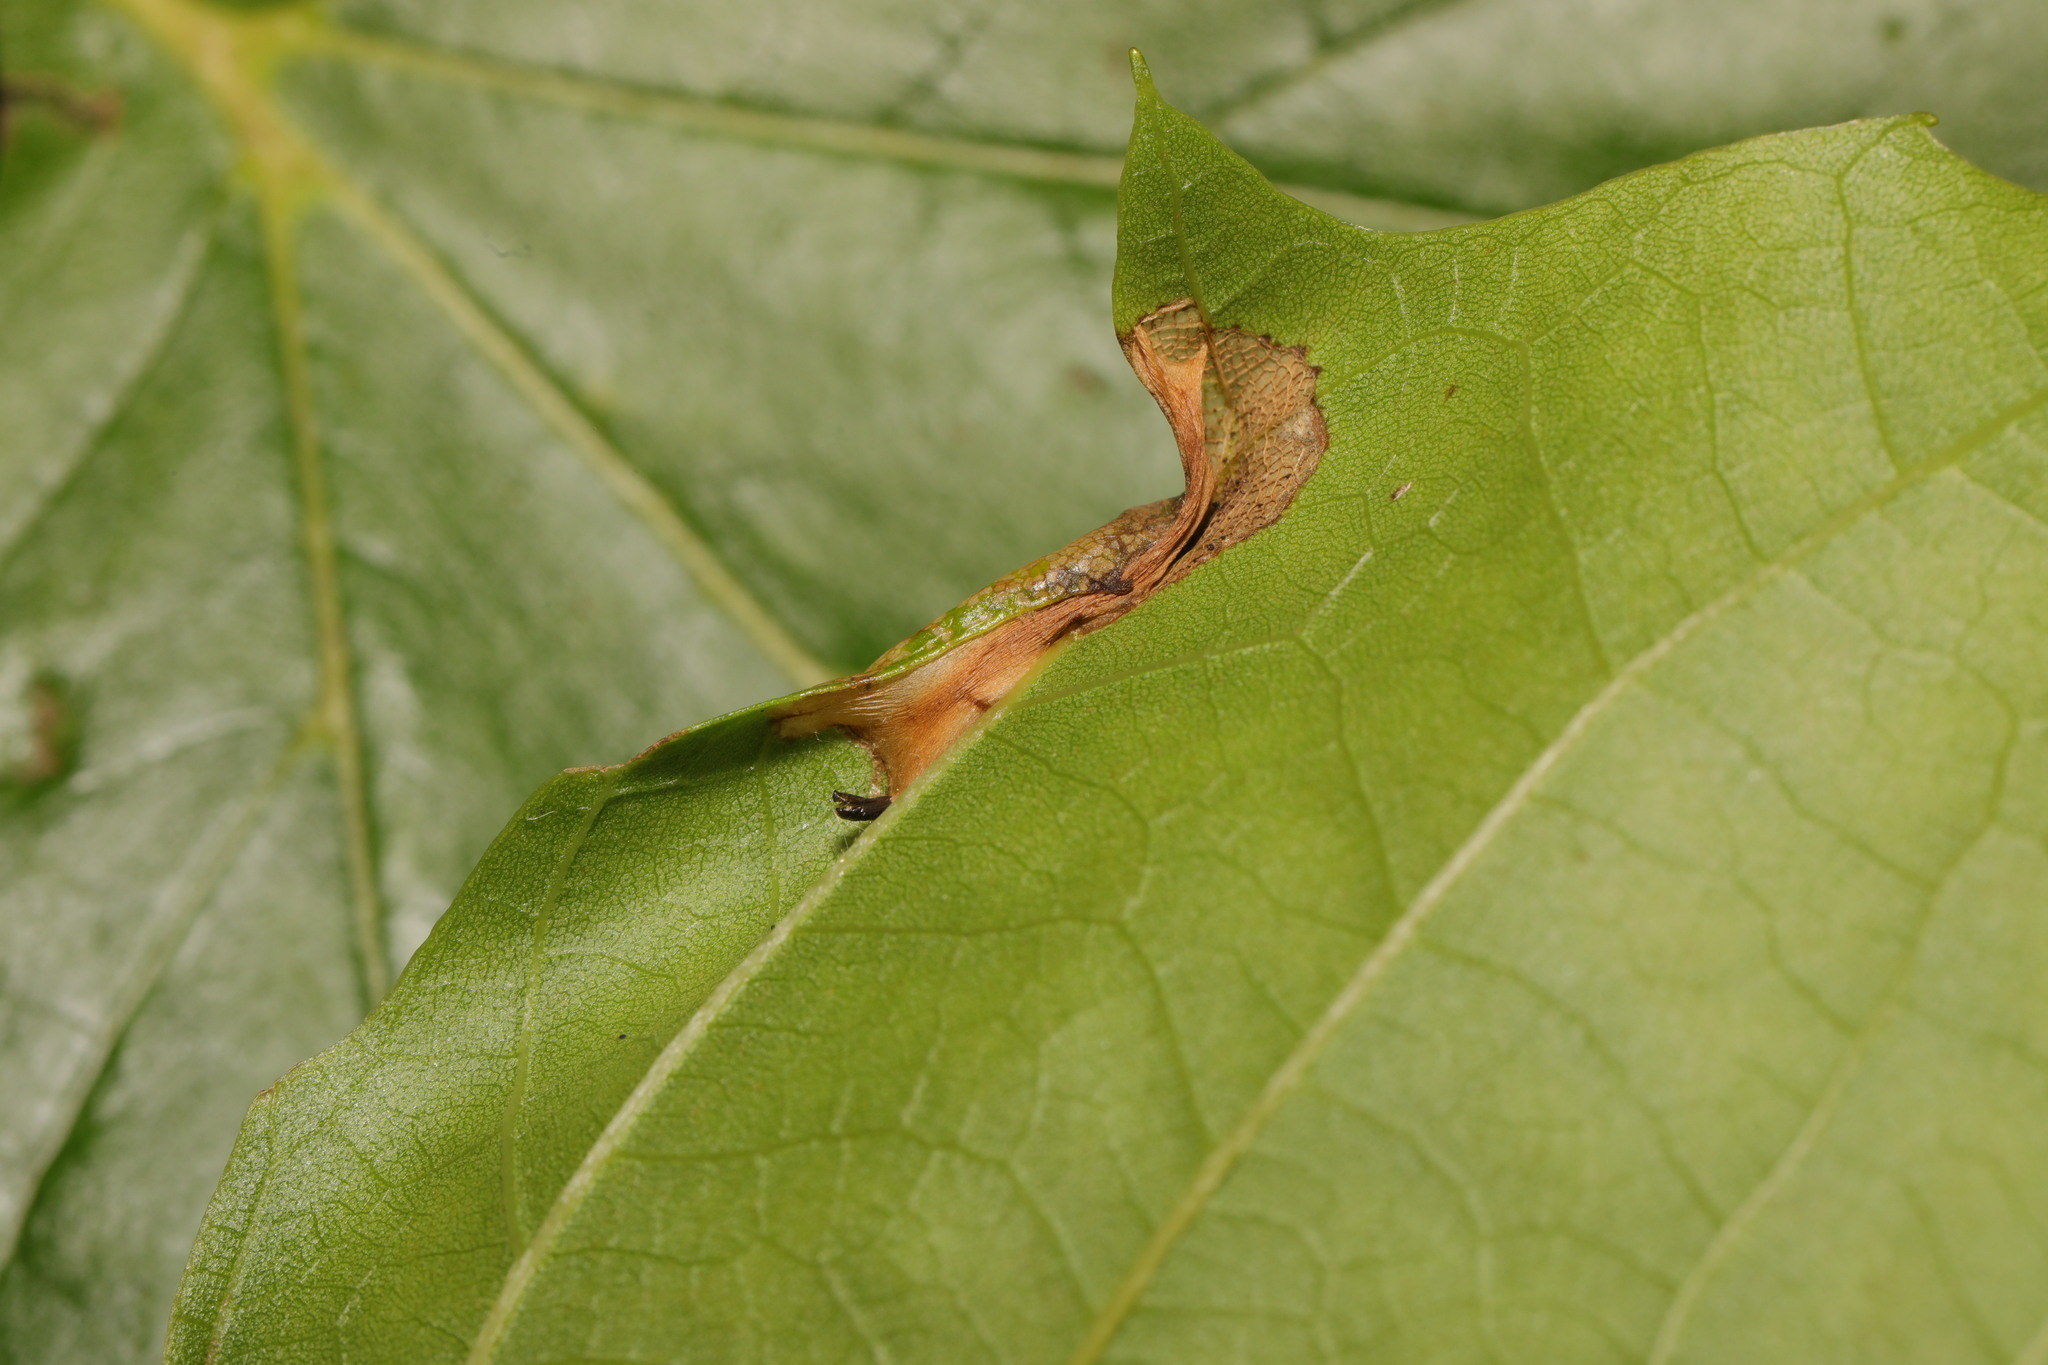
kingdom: Animalia
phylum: Arthropoda
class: Insecta
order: Lepidoptera
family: Gracillariidae
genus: Phyllonorycter
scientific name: Phyllonorycter platani
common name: London midget
